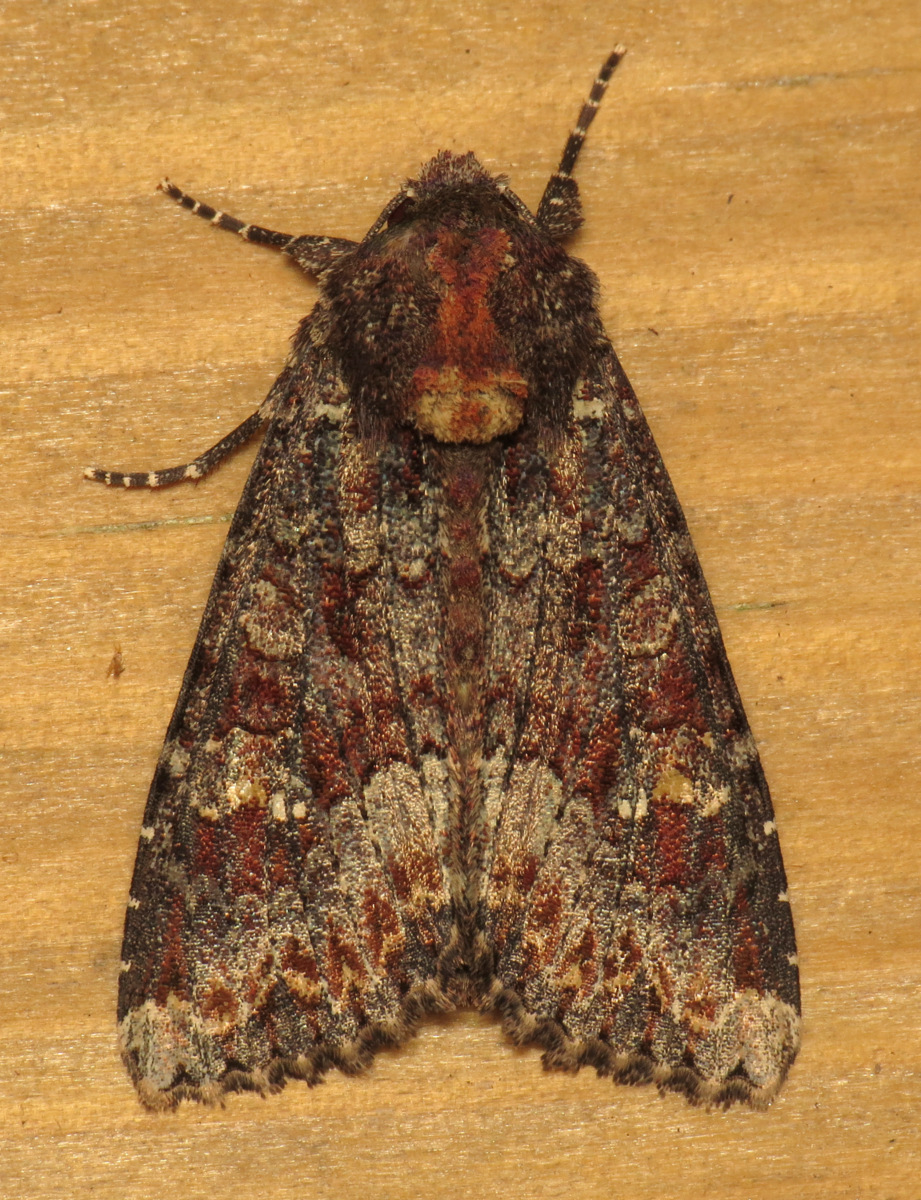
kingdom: Animalia
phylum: Arthropoda
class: Insecta
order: Lepidoptera
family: Noctuidae
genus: Apamea
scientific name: Apamea amputatrix
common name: Yellow-headed cutworm moth
